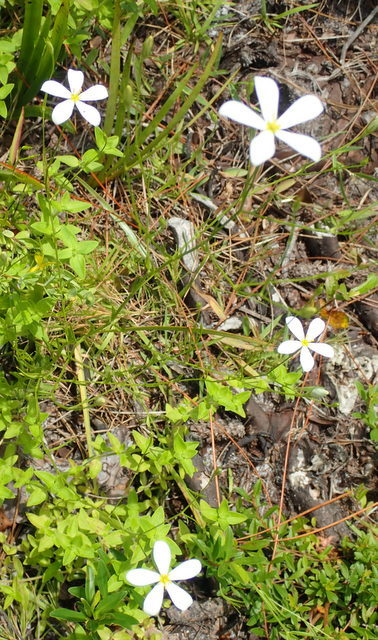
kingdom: Plantae
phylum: Tracheophyta
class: Magnoliopsida
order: Gentianales
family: Gentianaceae
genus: Sabatia
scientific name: Sabatia brevifolia
